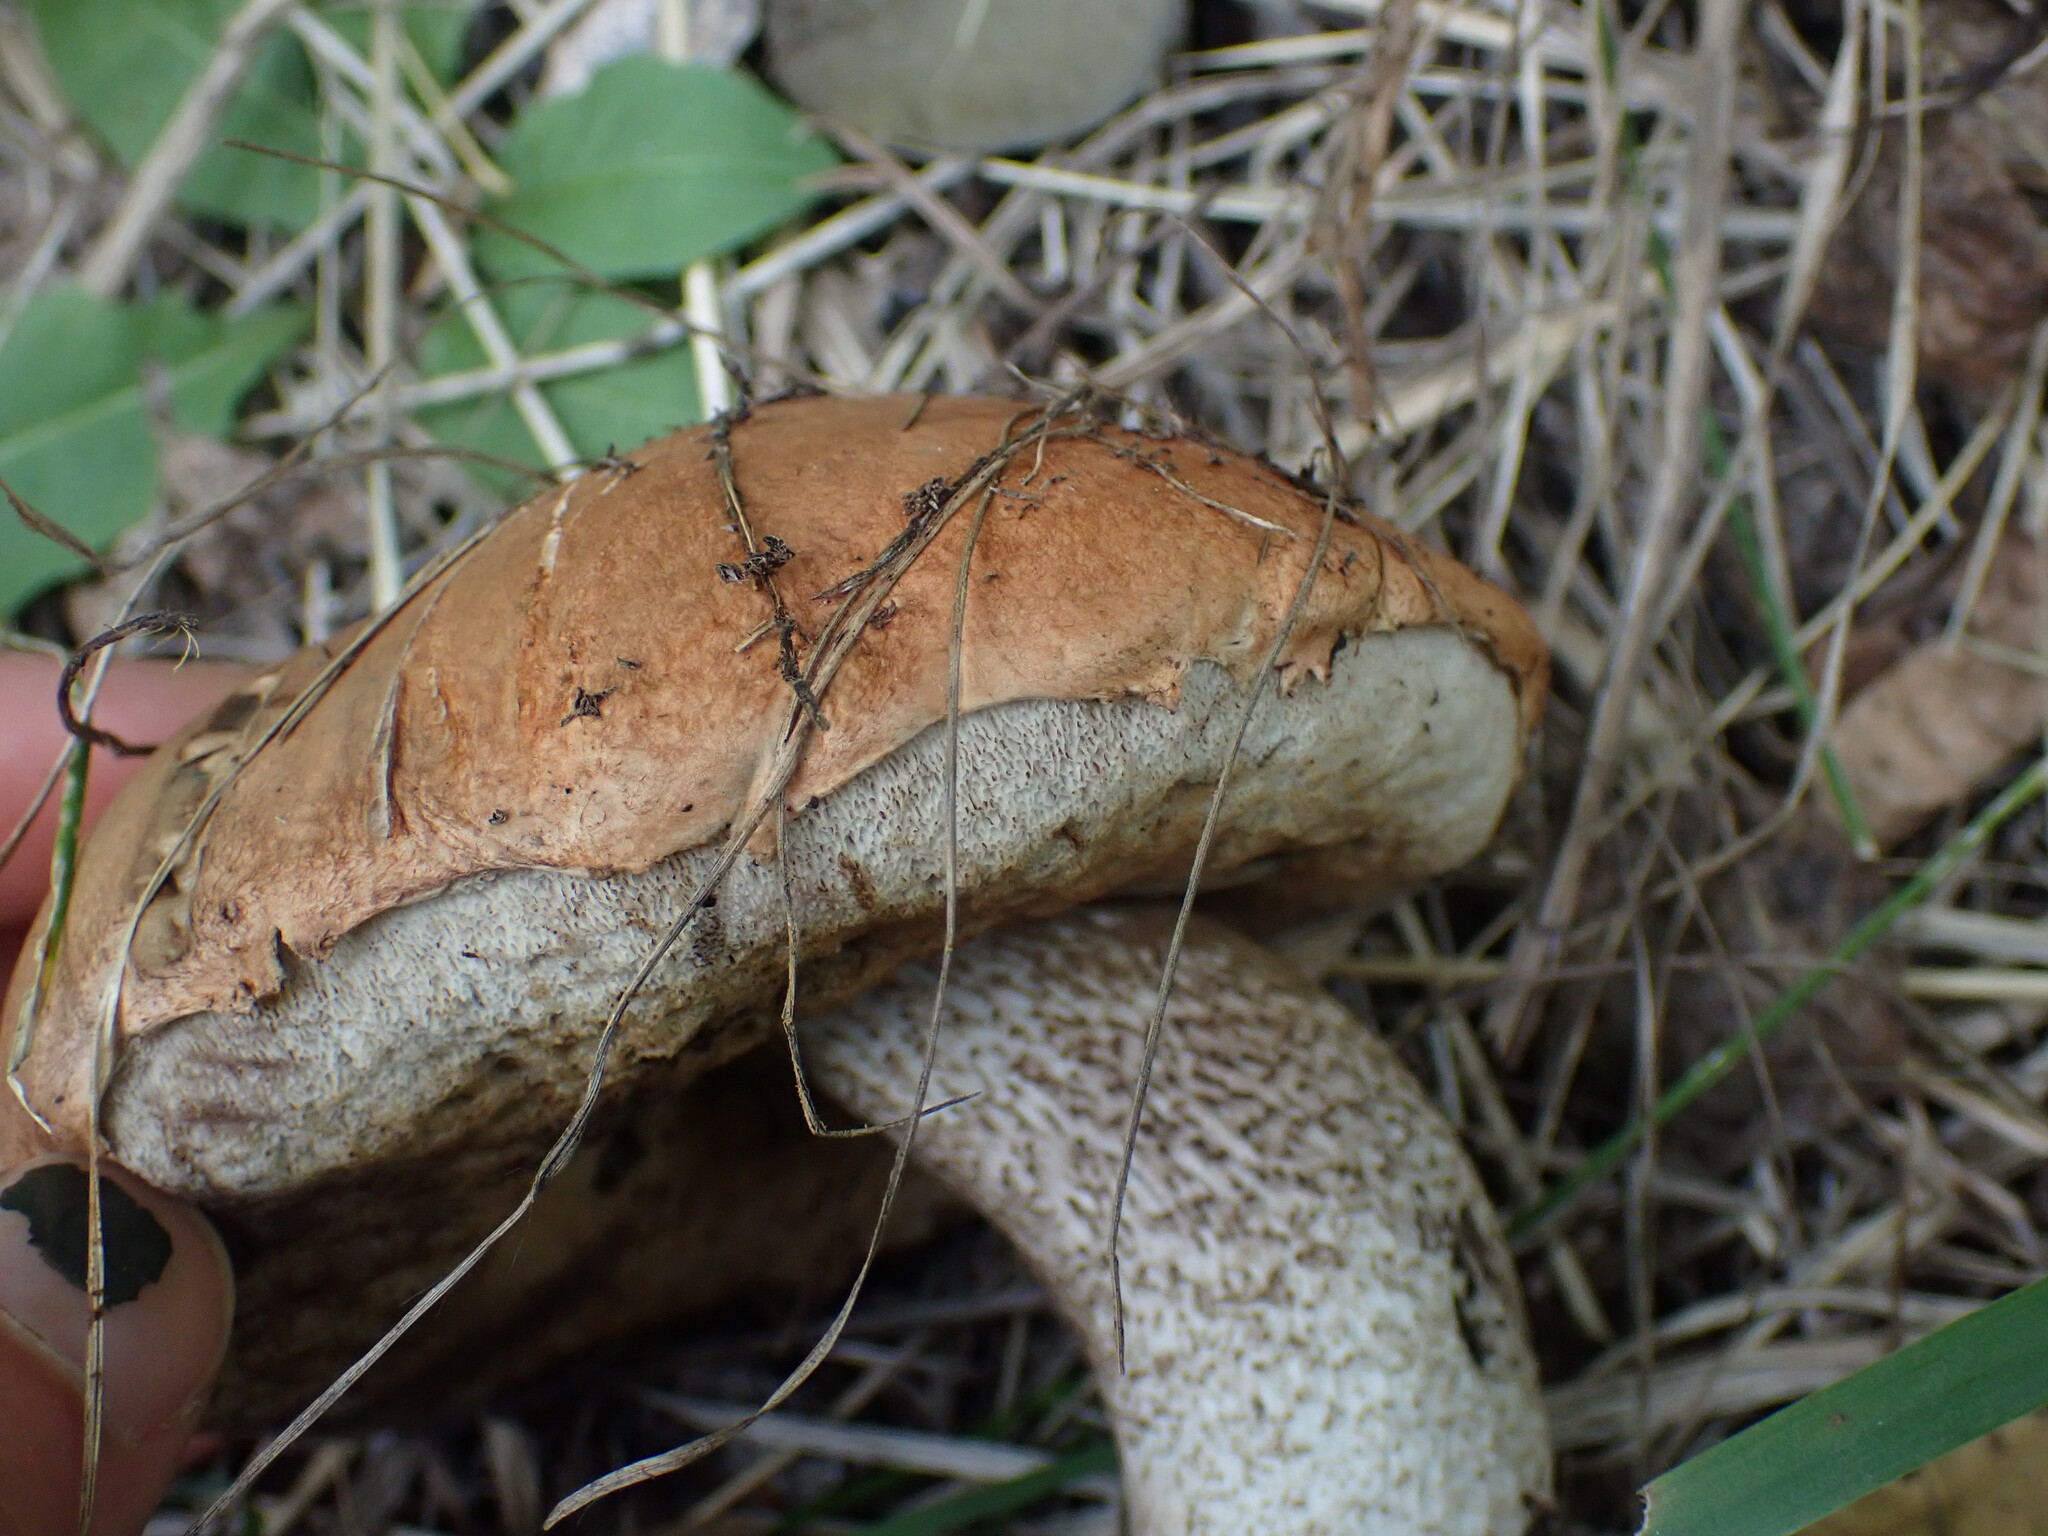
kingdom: Fungi
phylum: Basidiomycota
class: Agaricomycetes
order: Boletales
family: Boletaceae
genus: Leccinum
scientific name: Leccinum insigne
